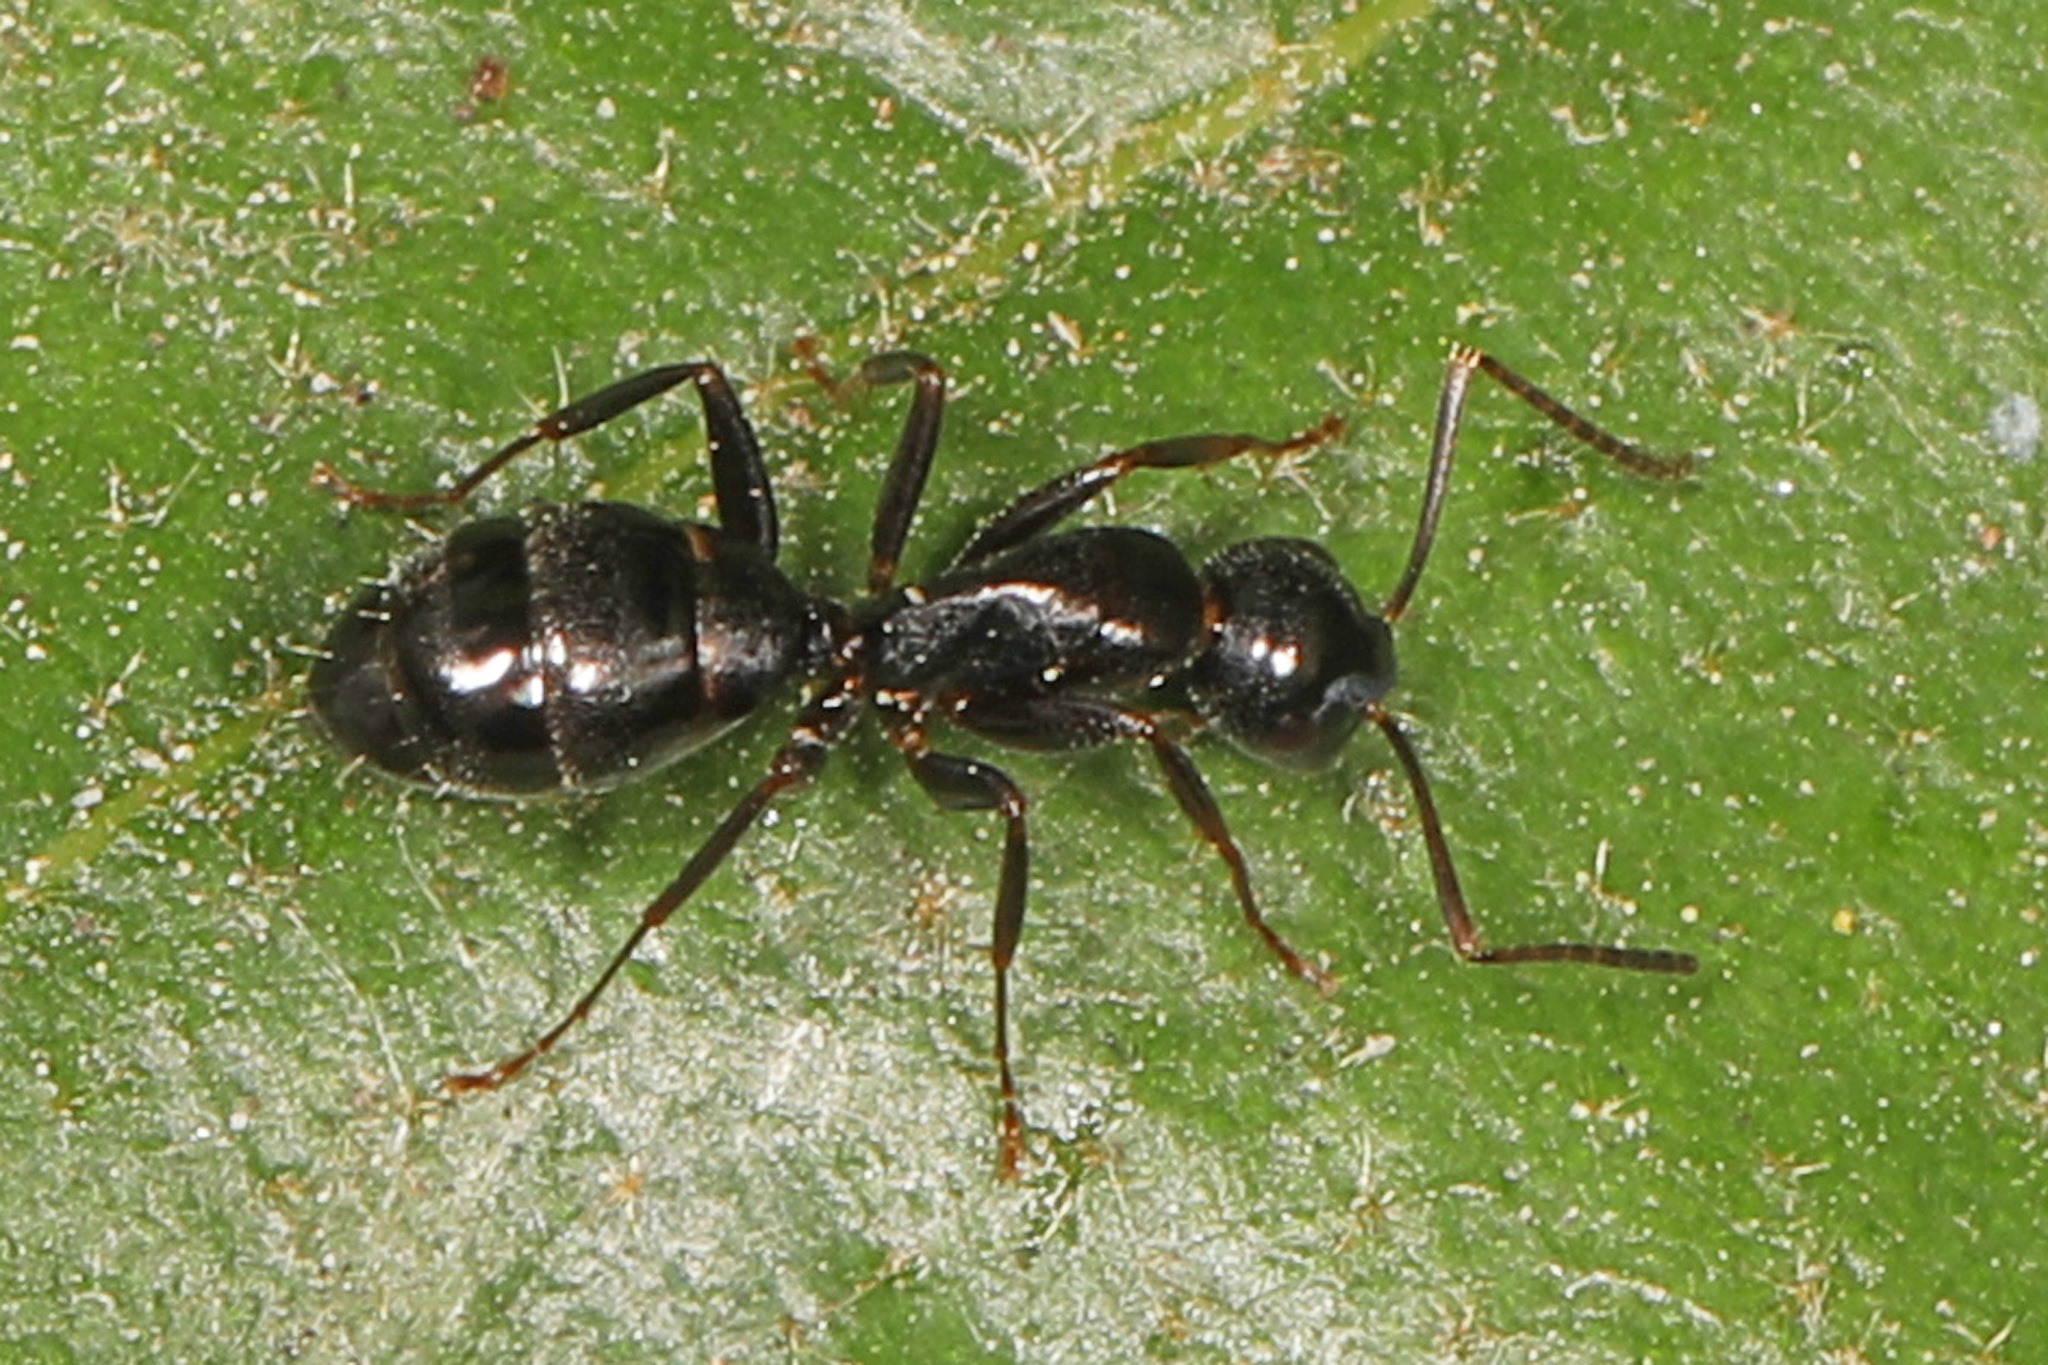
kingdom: Animalia
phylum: Arthropoda
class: Insecta
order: Hymenoptera
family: Formicidae
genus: Camponotus
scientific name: Camponotus nearcticus
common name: Smaller carpenter ant
